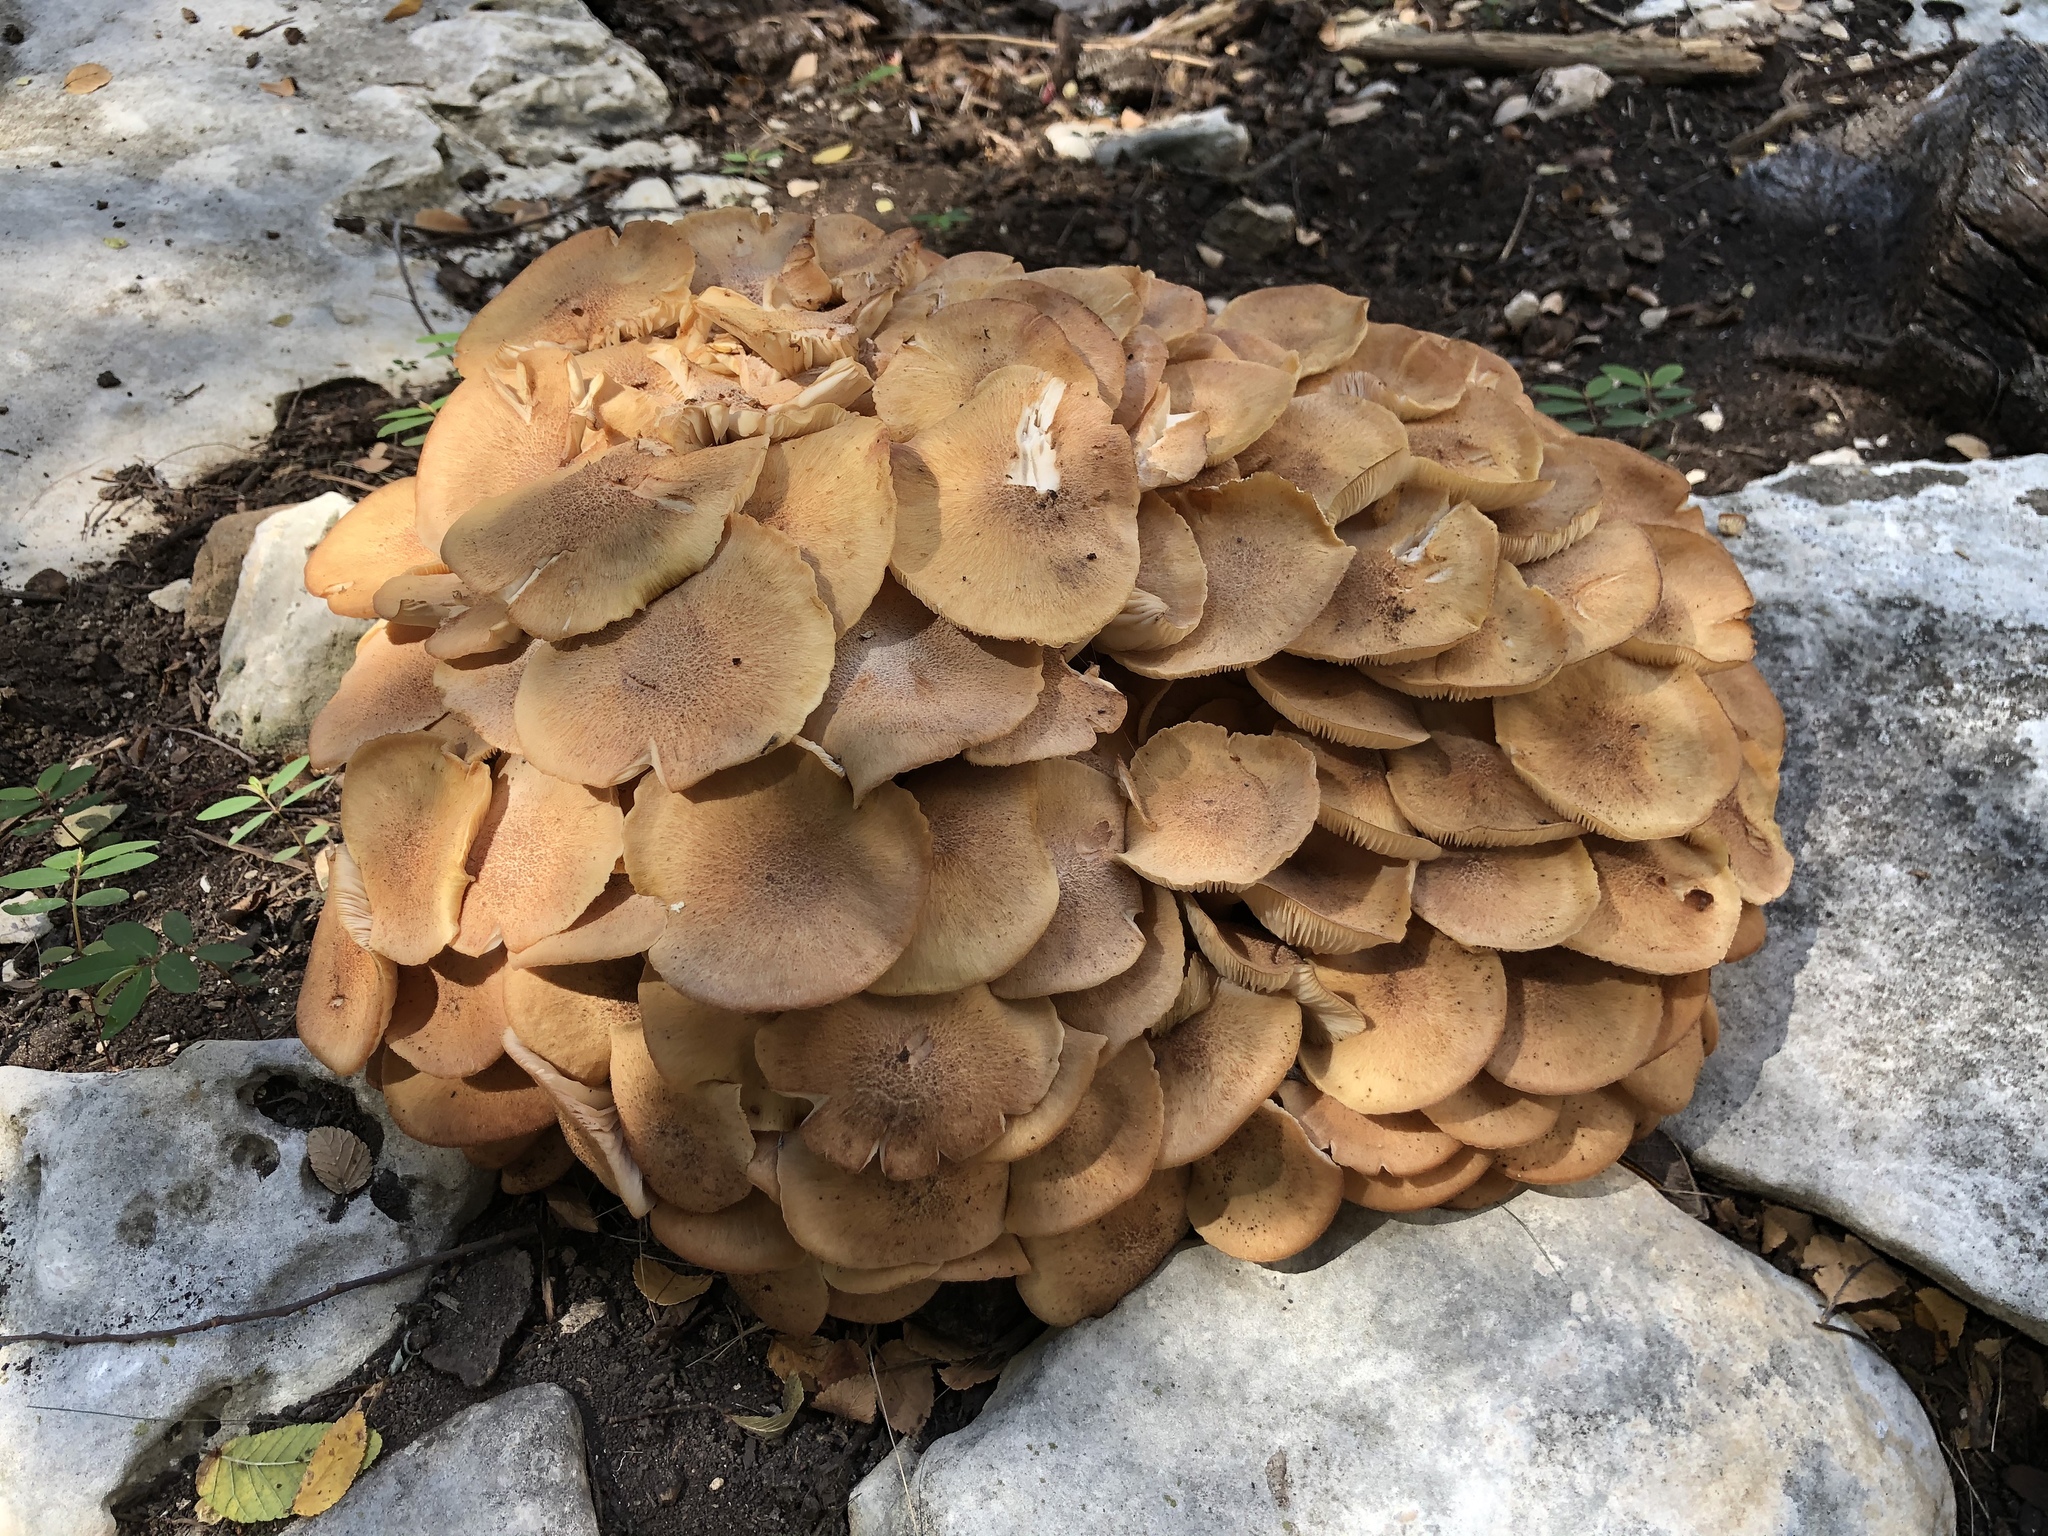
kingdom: Fungi
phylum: Basidiomycota
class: Agaricomycetes
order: Agaricales
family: Physalacriaceae
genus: Desarmillaria
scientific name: Desarmillaria caespitosa
